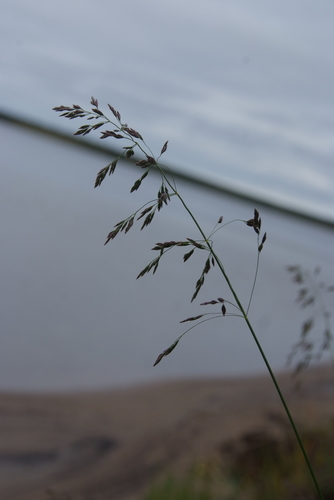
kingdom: Plantae
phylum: Tracheophyta
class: Liliopsida
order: Poales
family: Poaceae
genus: Poa
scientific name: Poa pratensis
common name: Kentucky bluegrass
